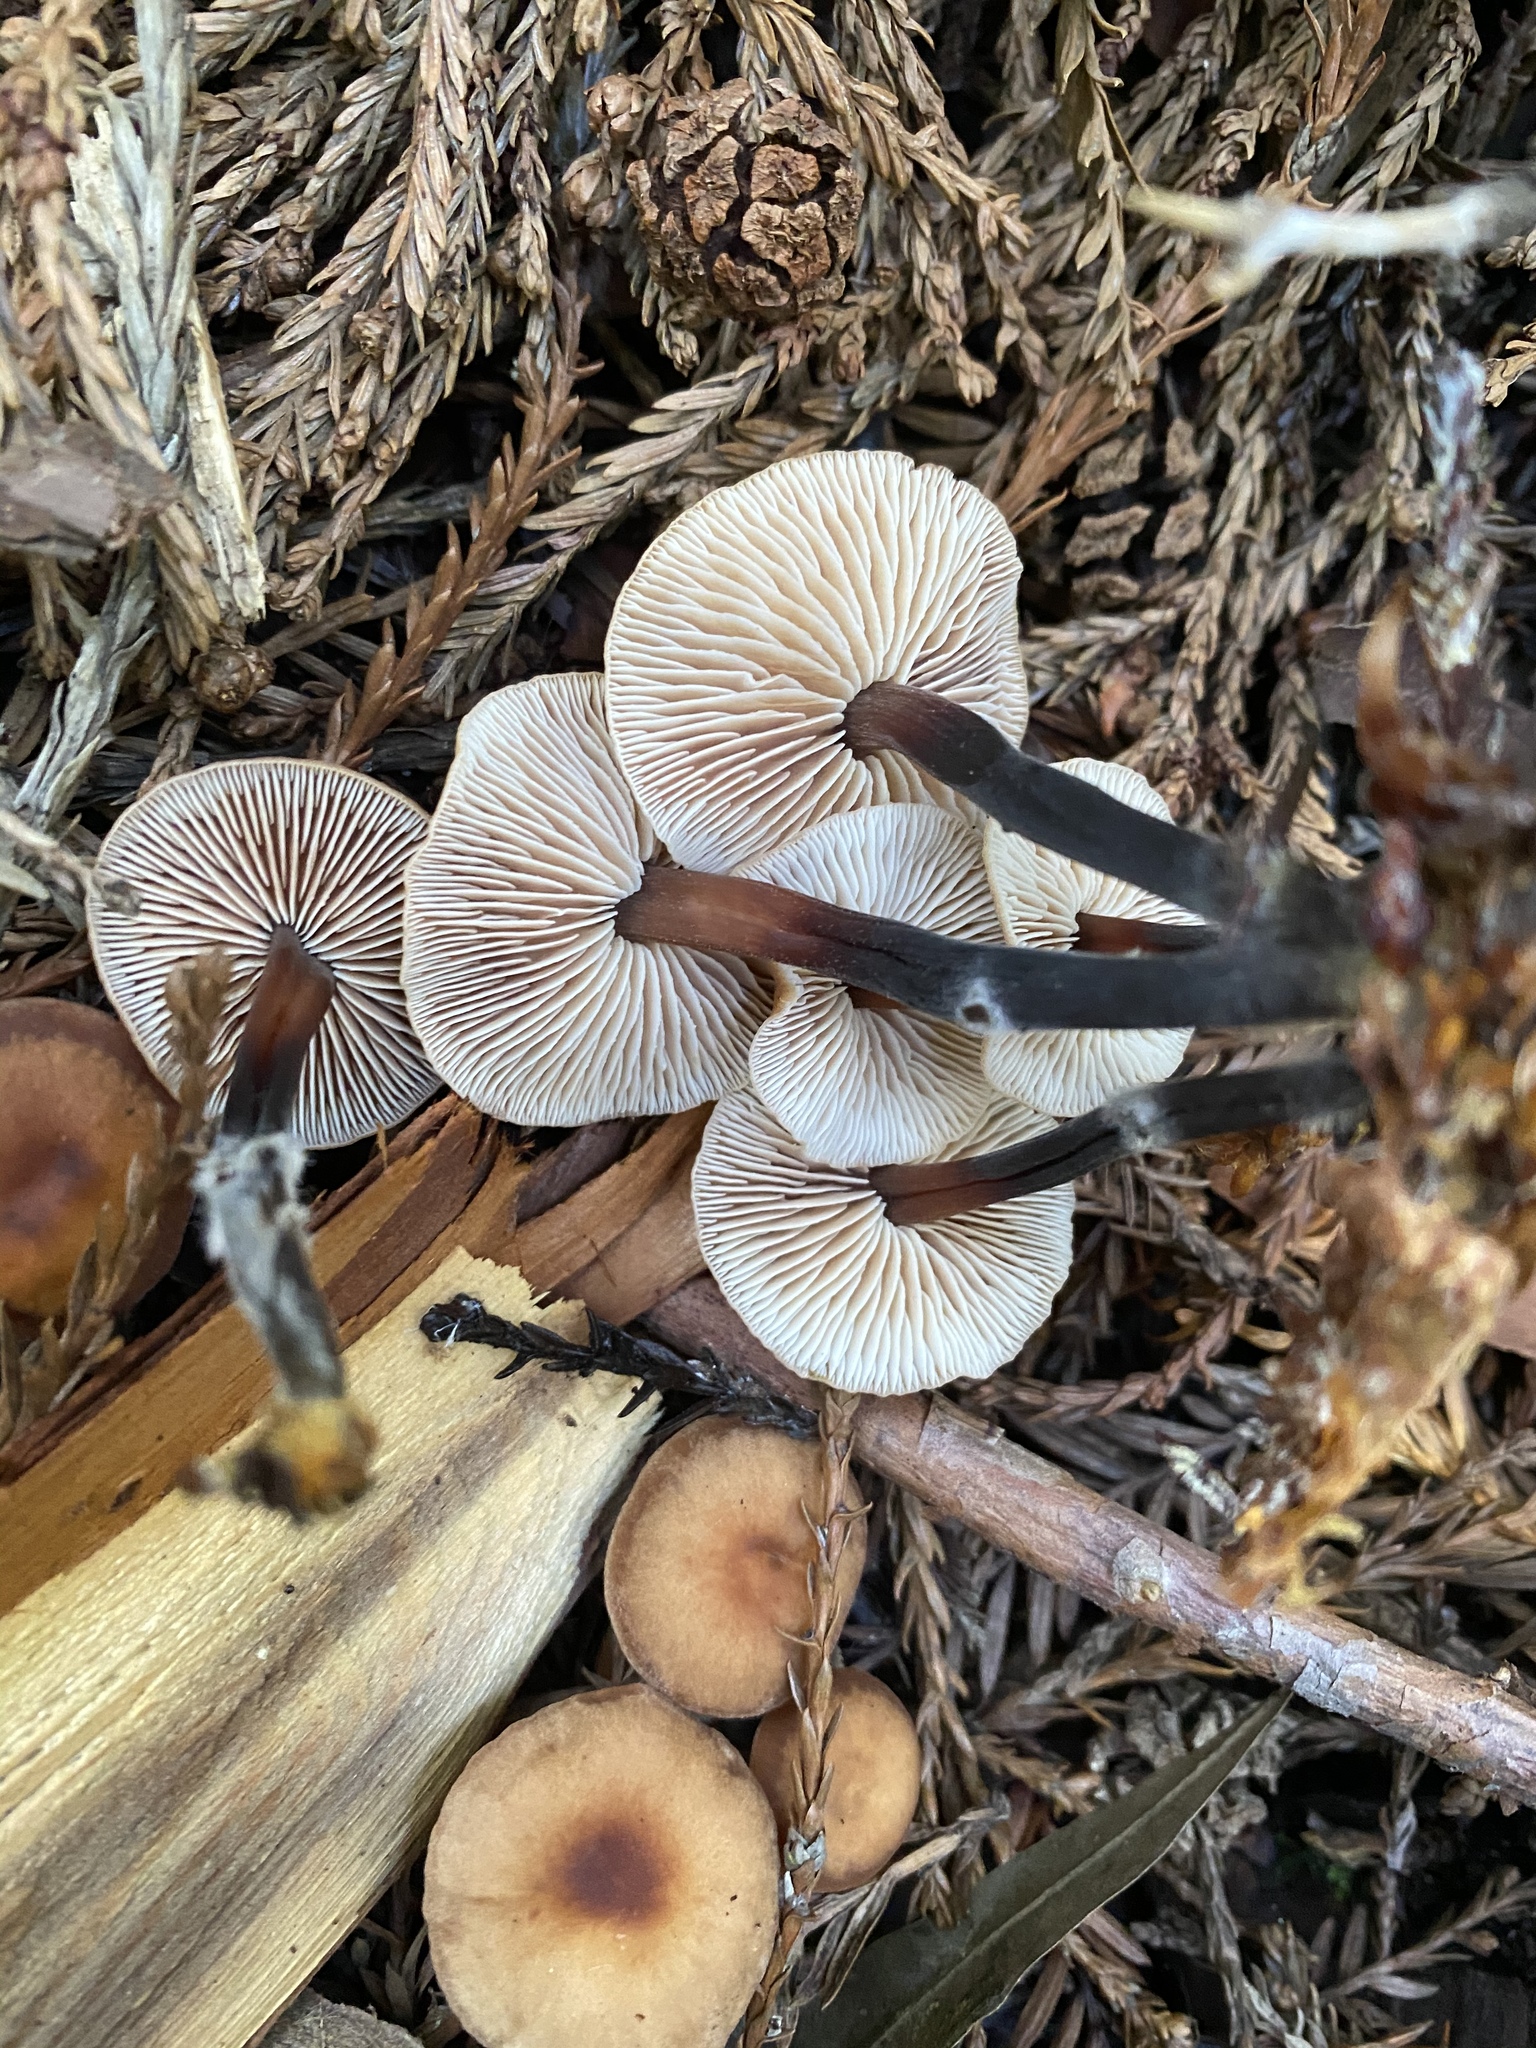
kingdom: Fungi
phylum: Basidiomycota
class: Agaricomycetes
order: Agaricales
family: Omphalotaceae
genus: Gymnopus
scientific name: Gymnopus brassicolens
